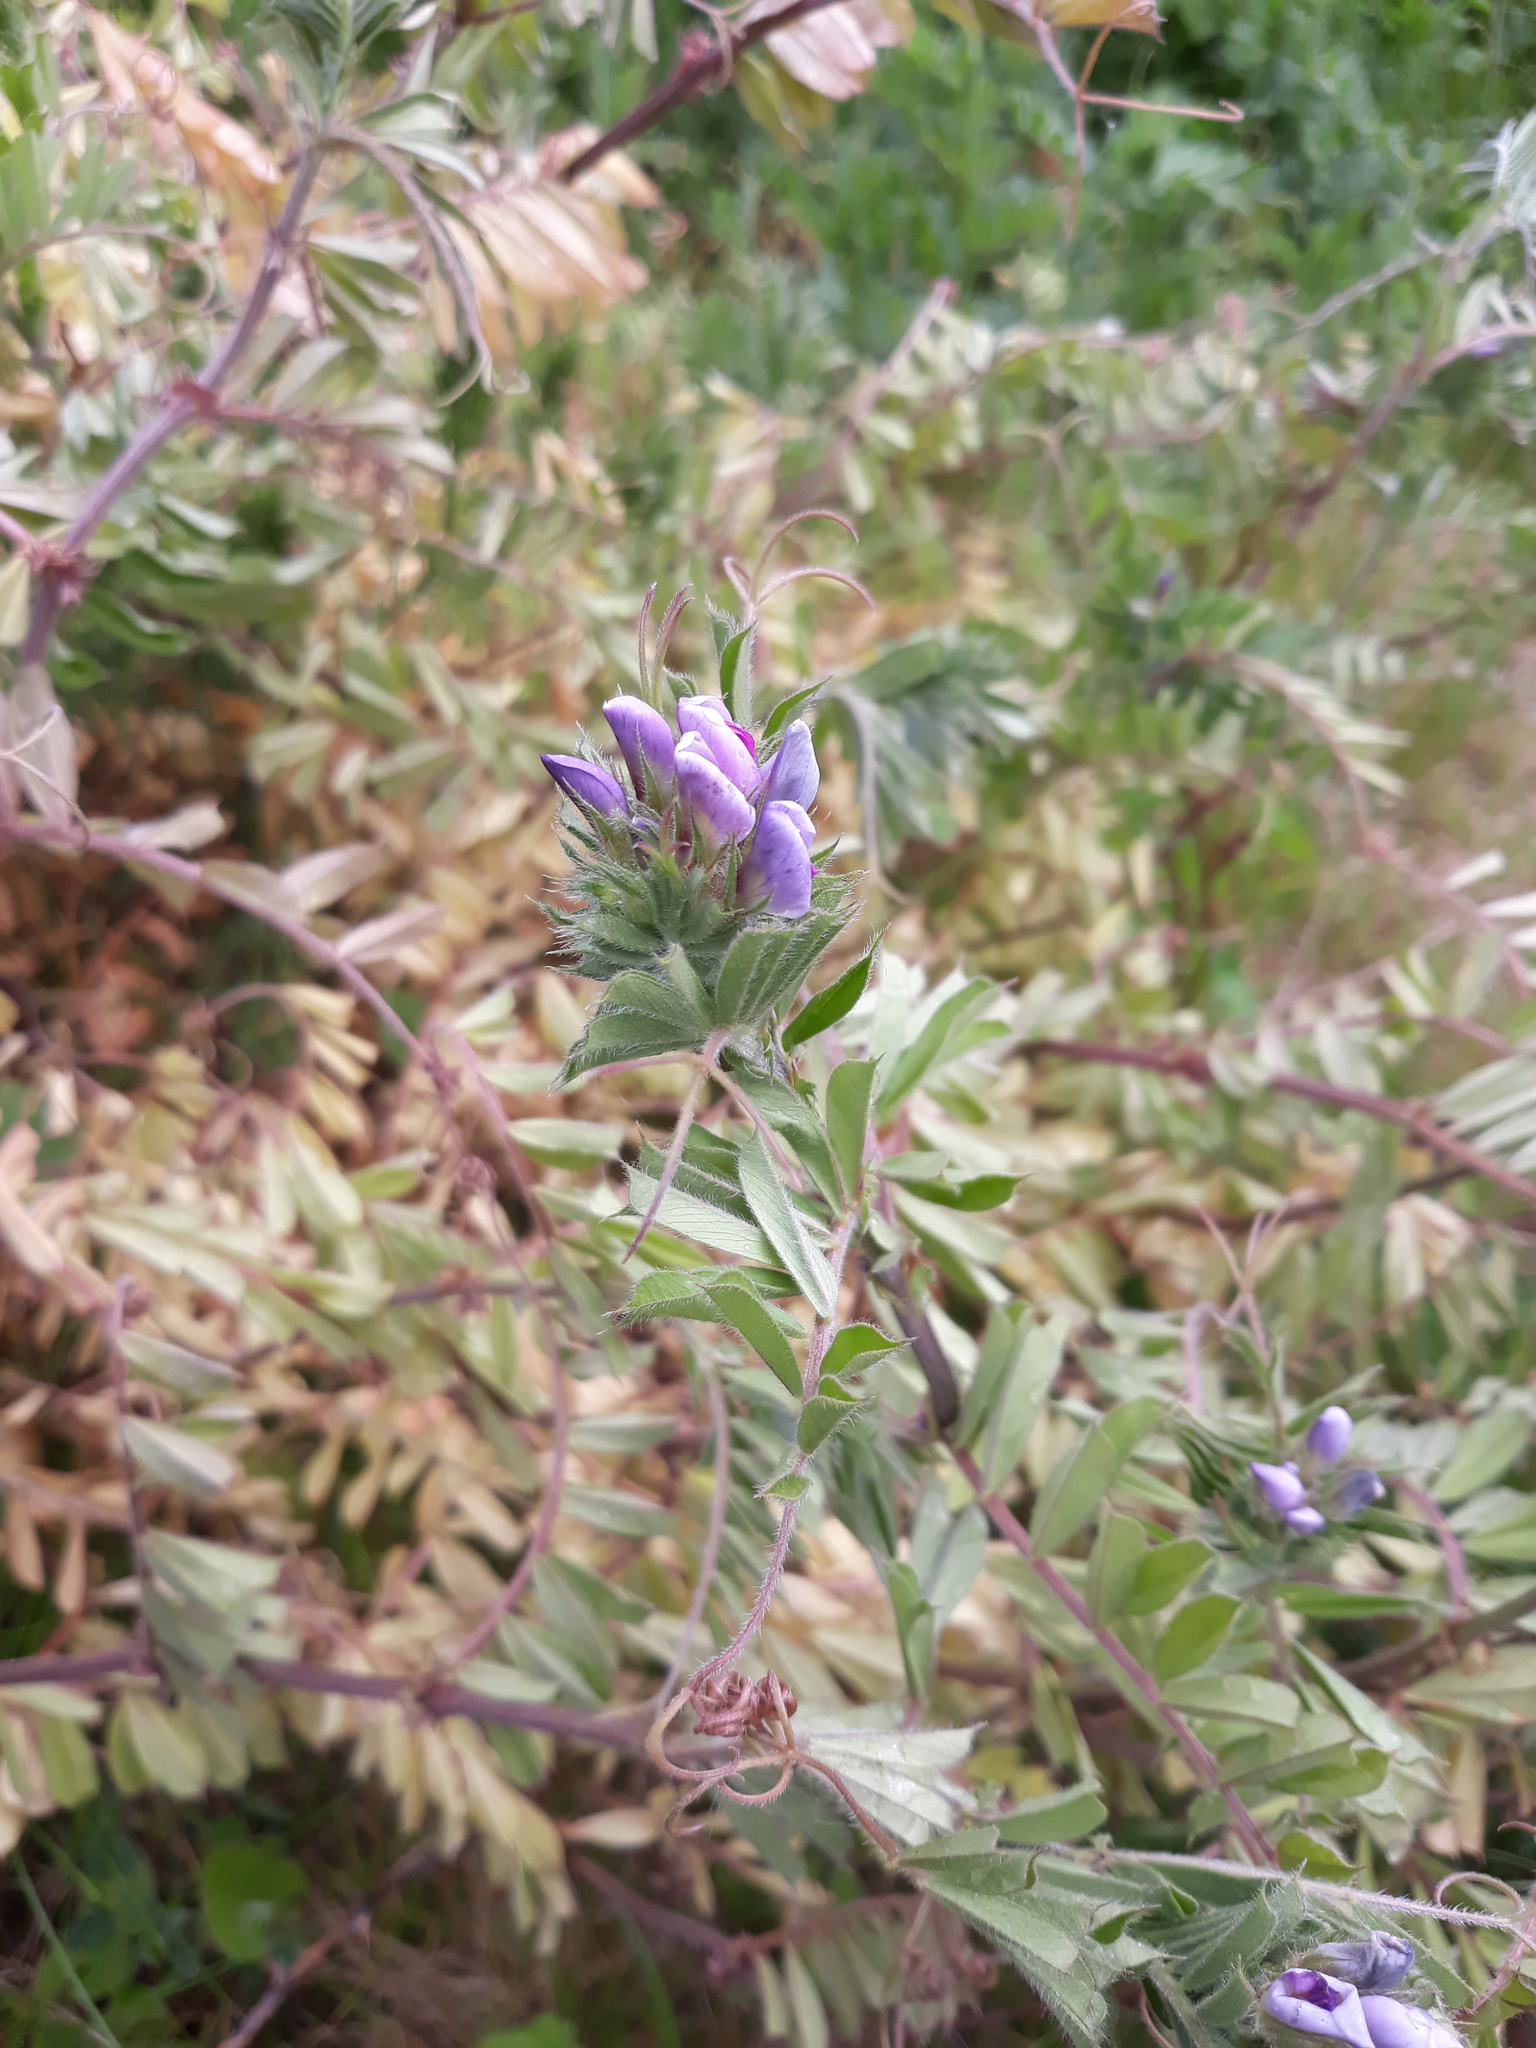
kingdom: Plantae
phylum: Tracheophyta
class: Magnoliopsida
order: Fabales
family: Fabaceae
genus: Vicia
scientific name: Vicia sepium
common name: Bush vetch
